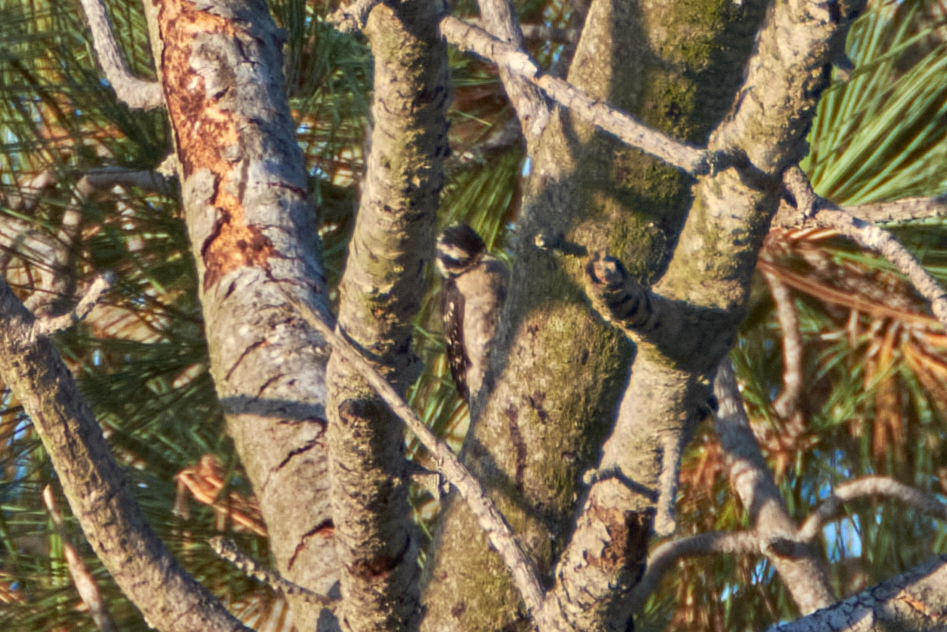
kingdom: Animalia
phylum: Chordata
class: Aves
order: Piciformes
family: Picidae
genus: Dryobates
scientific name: Dryobates pubescens
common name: Downy woodpecker
